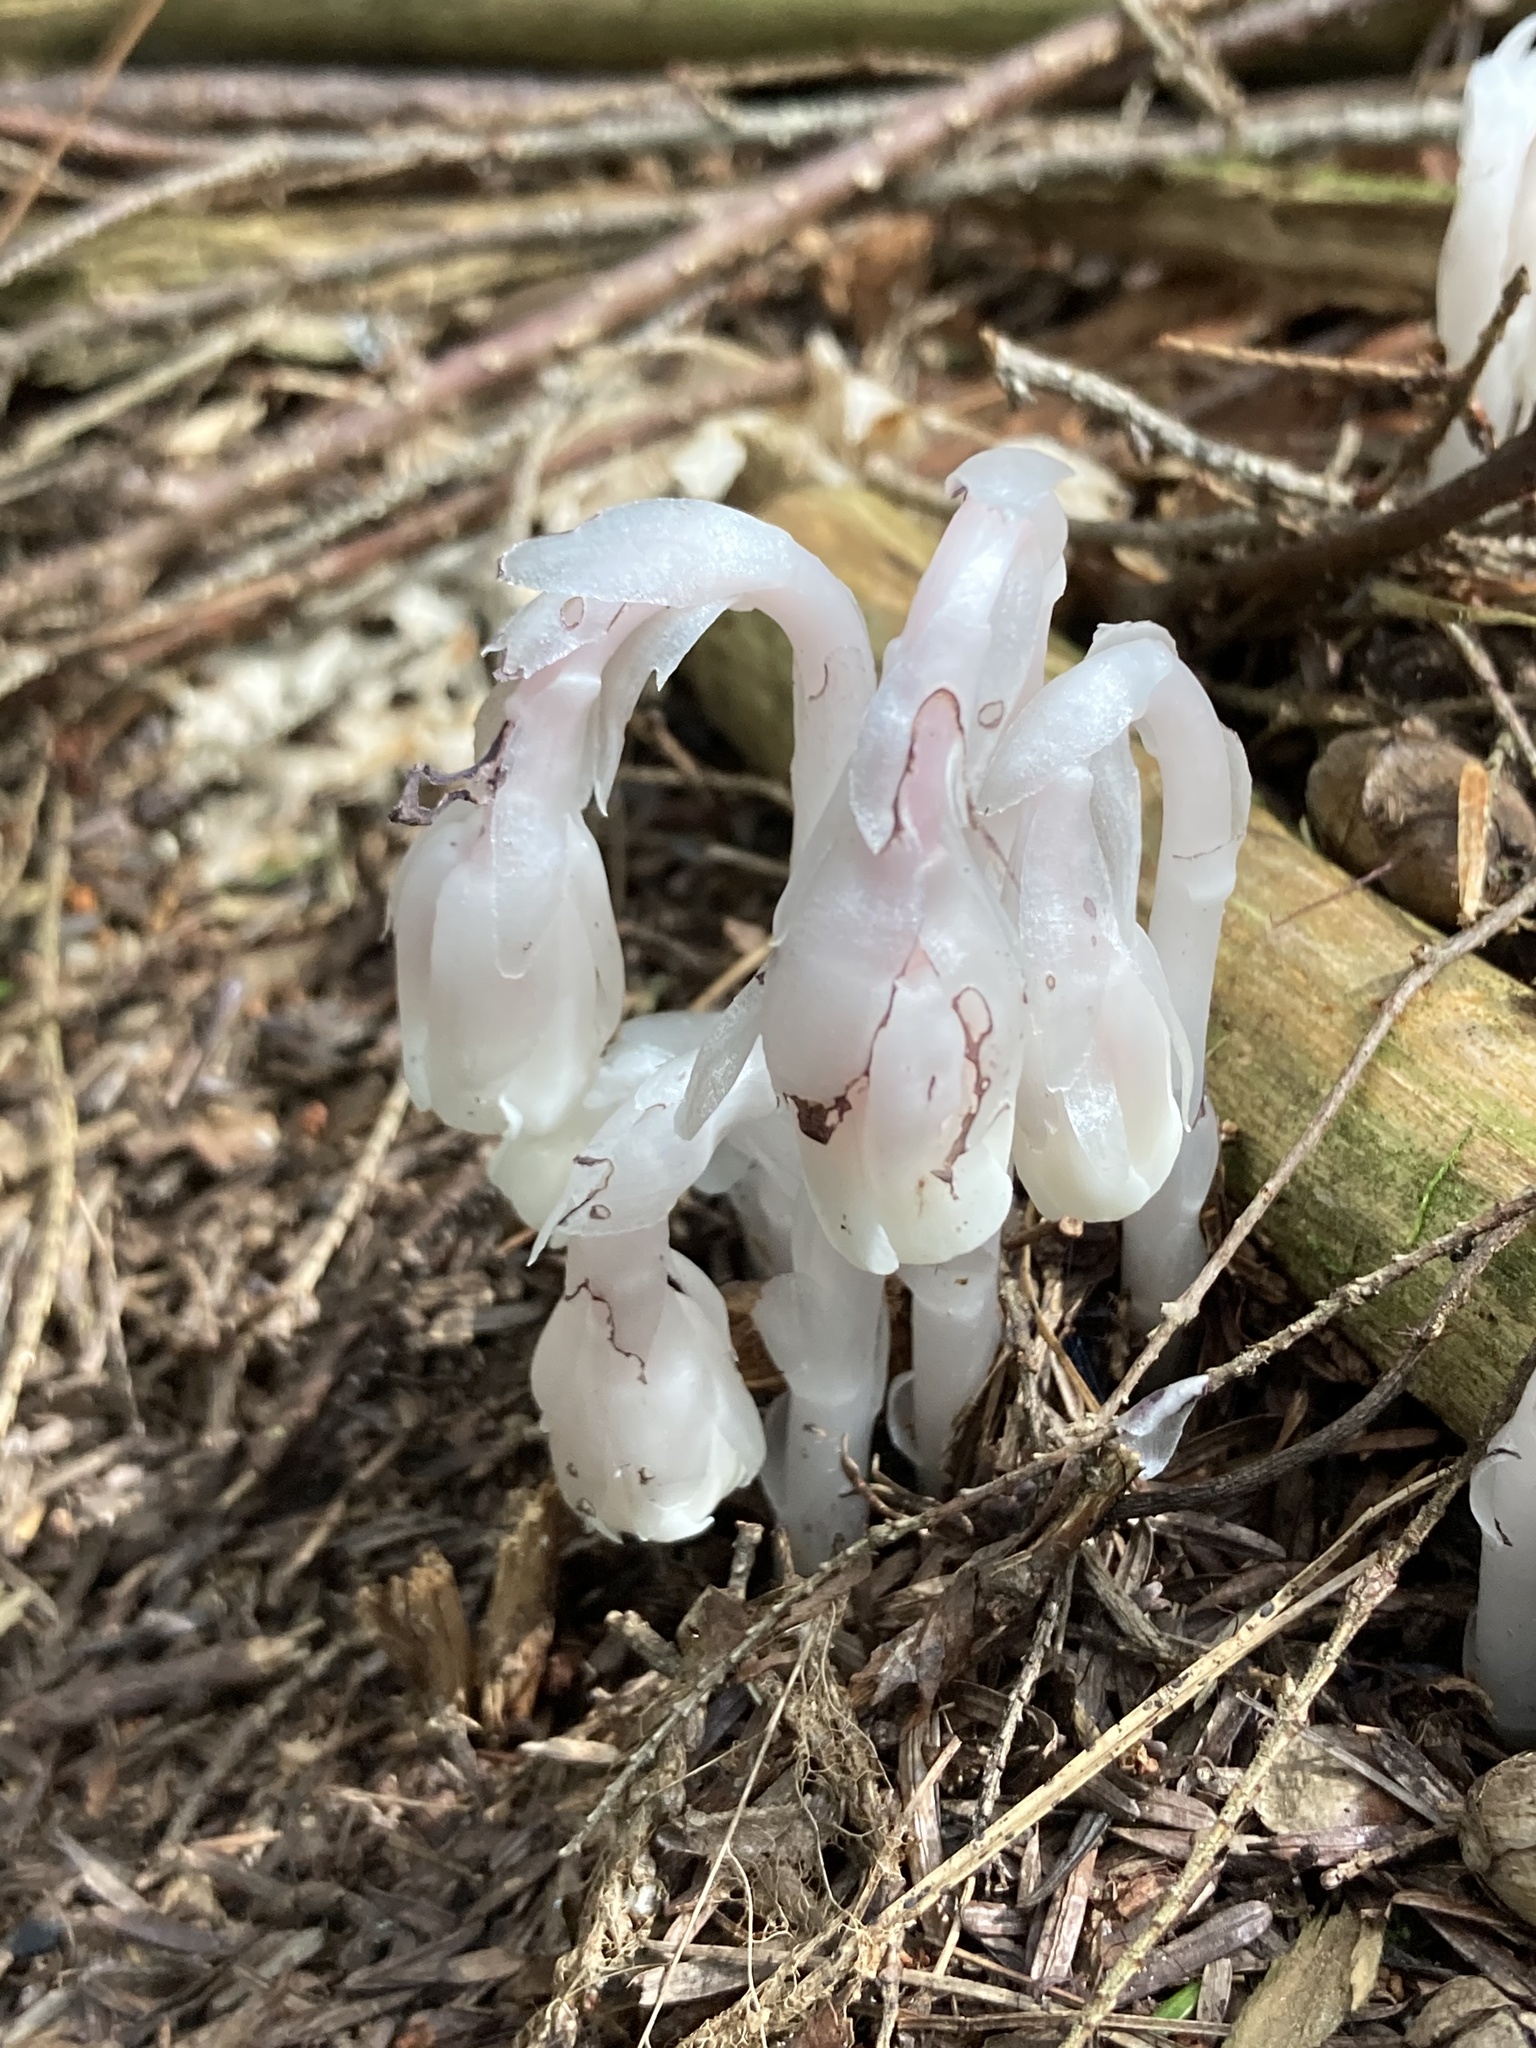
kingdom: Plantae
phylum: Tracheophyta
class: Magnoliopsida
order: Ericales
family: Ericaceae
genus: Monotropa
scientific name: Monotropa uniflora
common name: Convulsion root
